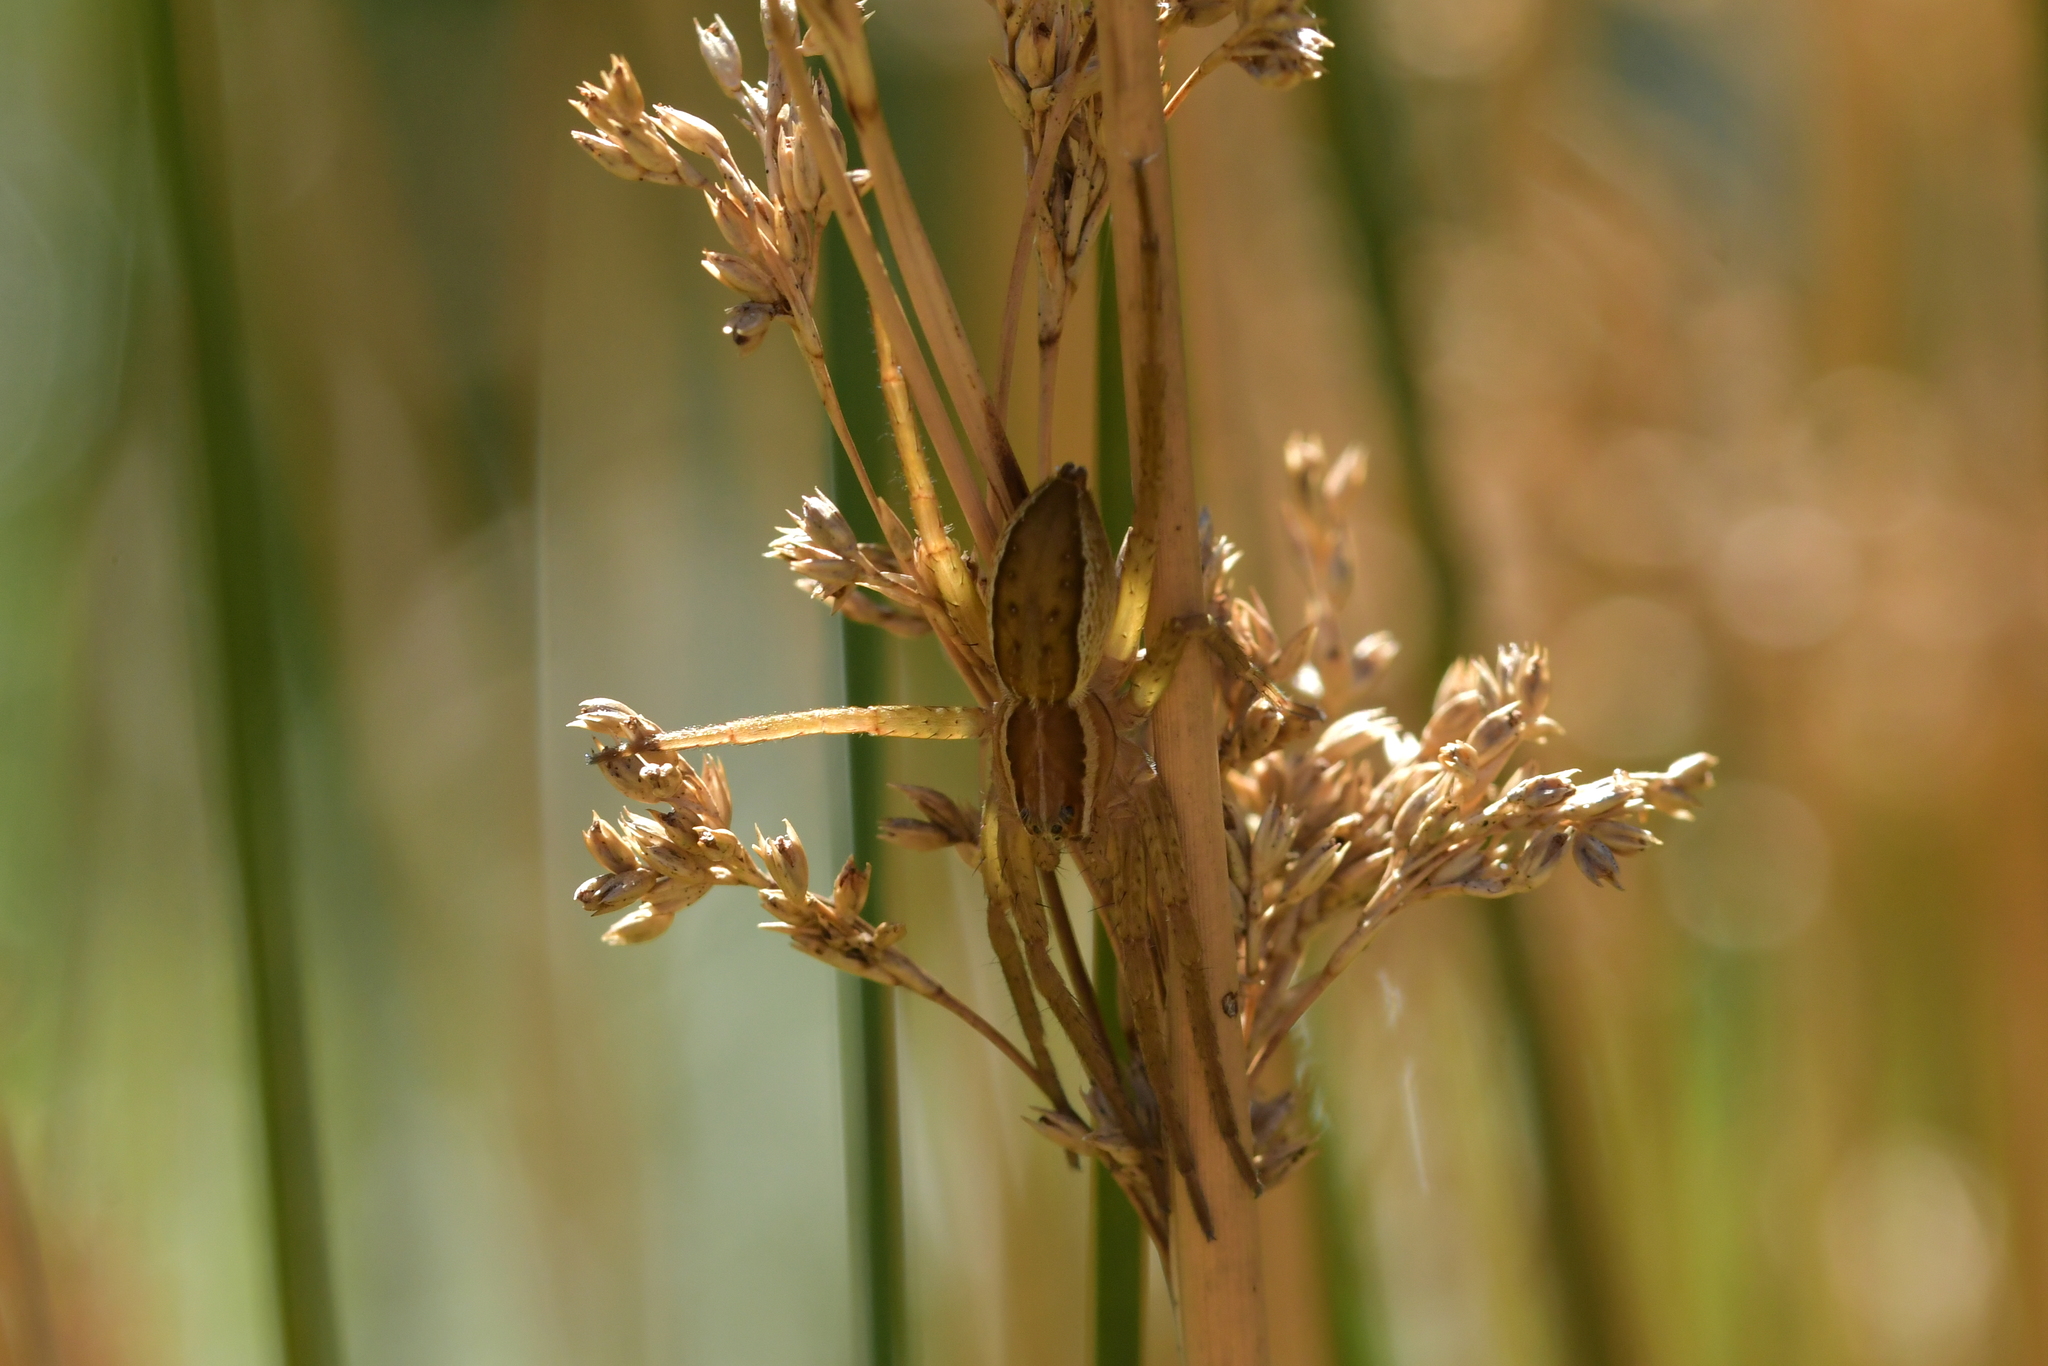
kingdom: Animalia
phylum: Arthropoda
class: Arachnida
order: Araneae
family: Pisauridae
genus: Dolomedes
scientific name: Dolomedes minor
